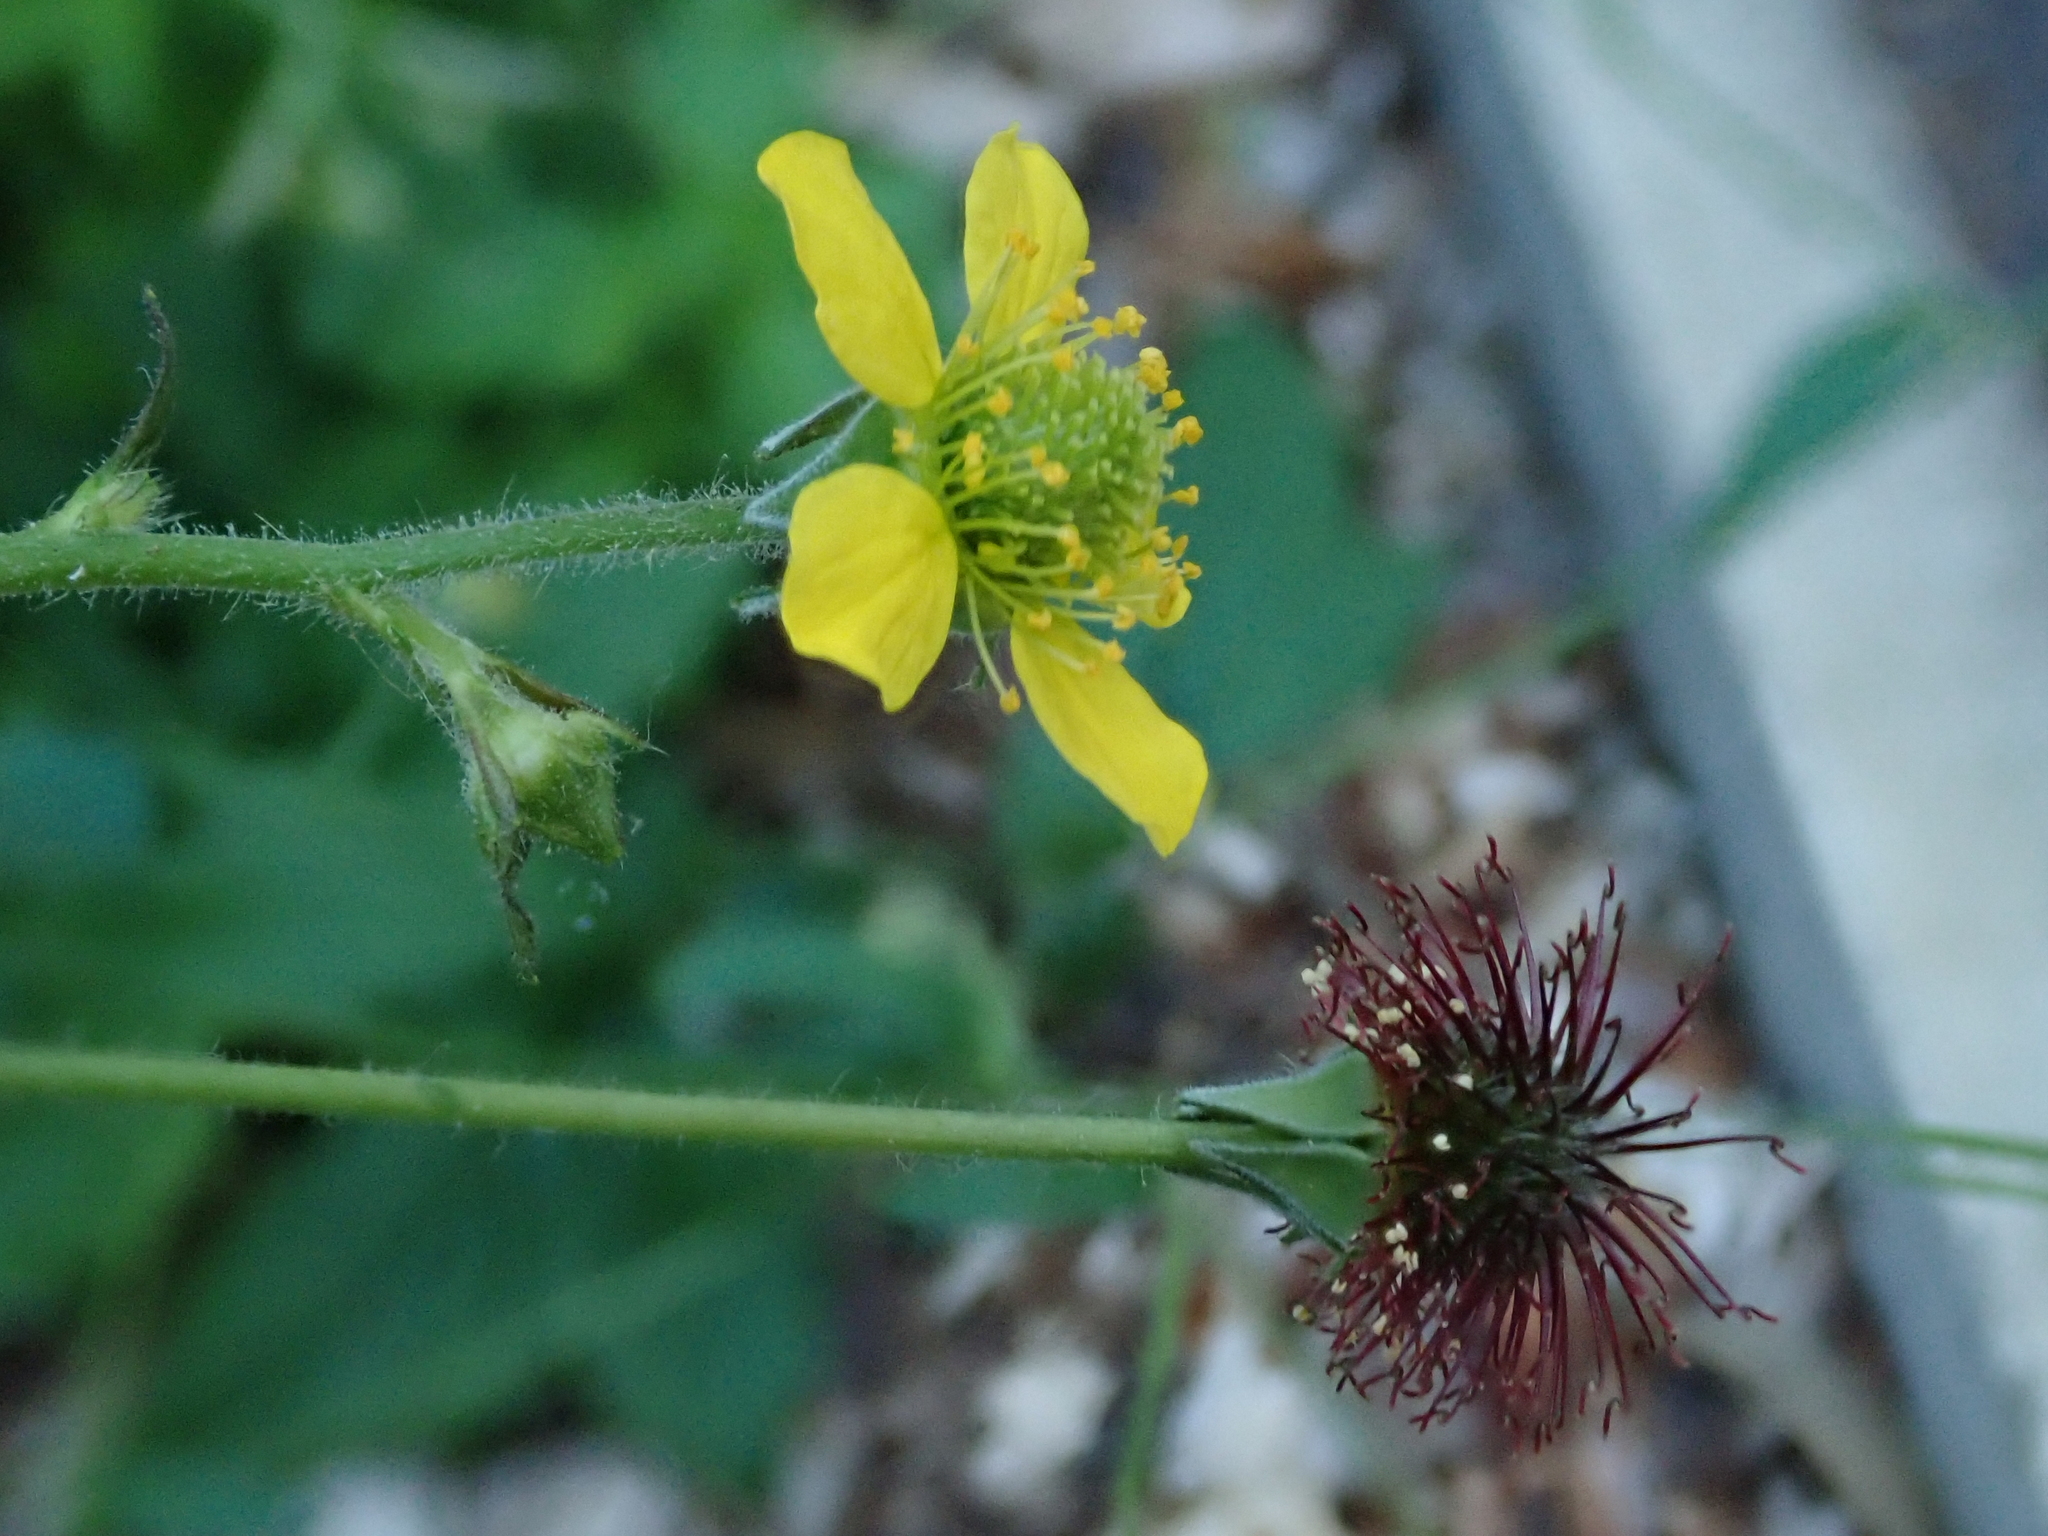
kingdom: Plantae
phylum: Tracheophyta
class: Magnoliopsida
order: Rosales
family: Rosaceae
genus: Geum
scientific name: Geum urbanum
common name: Wood avens
